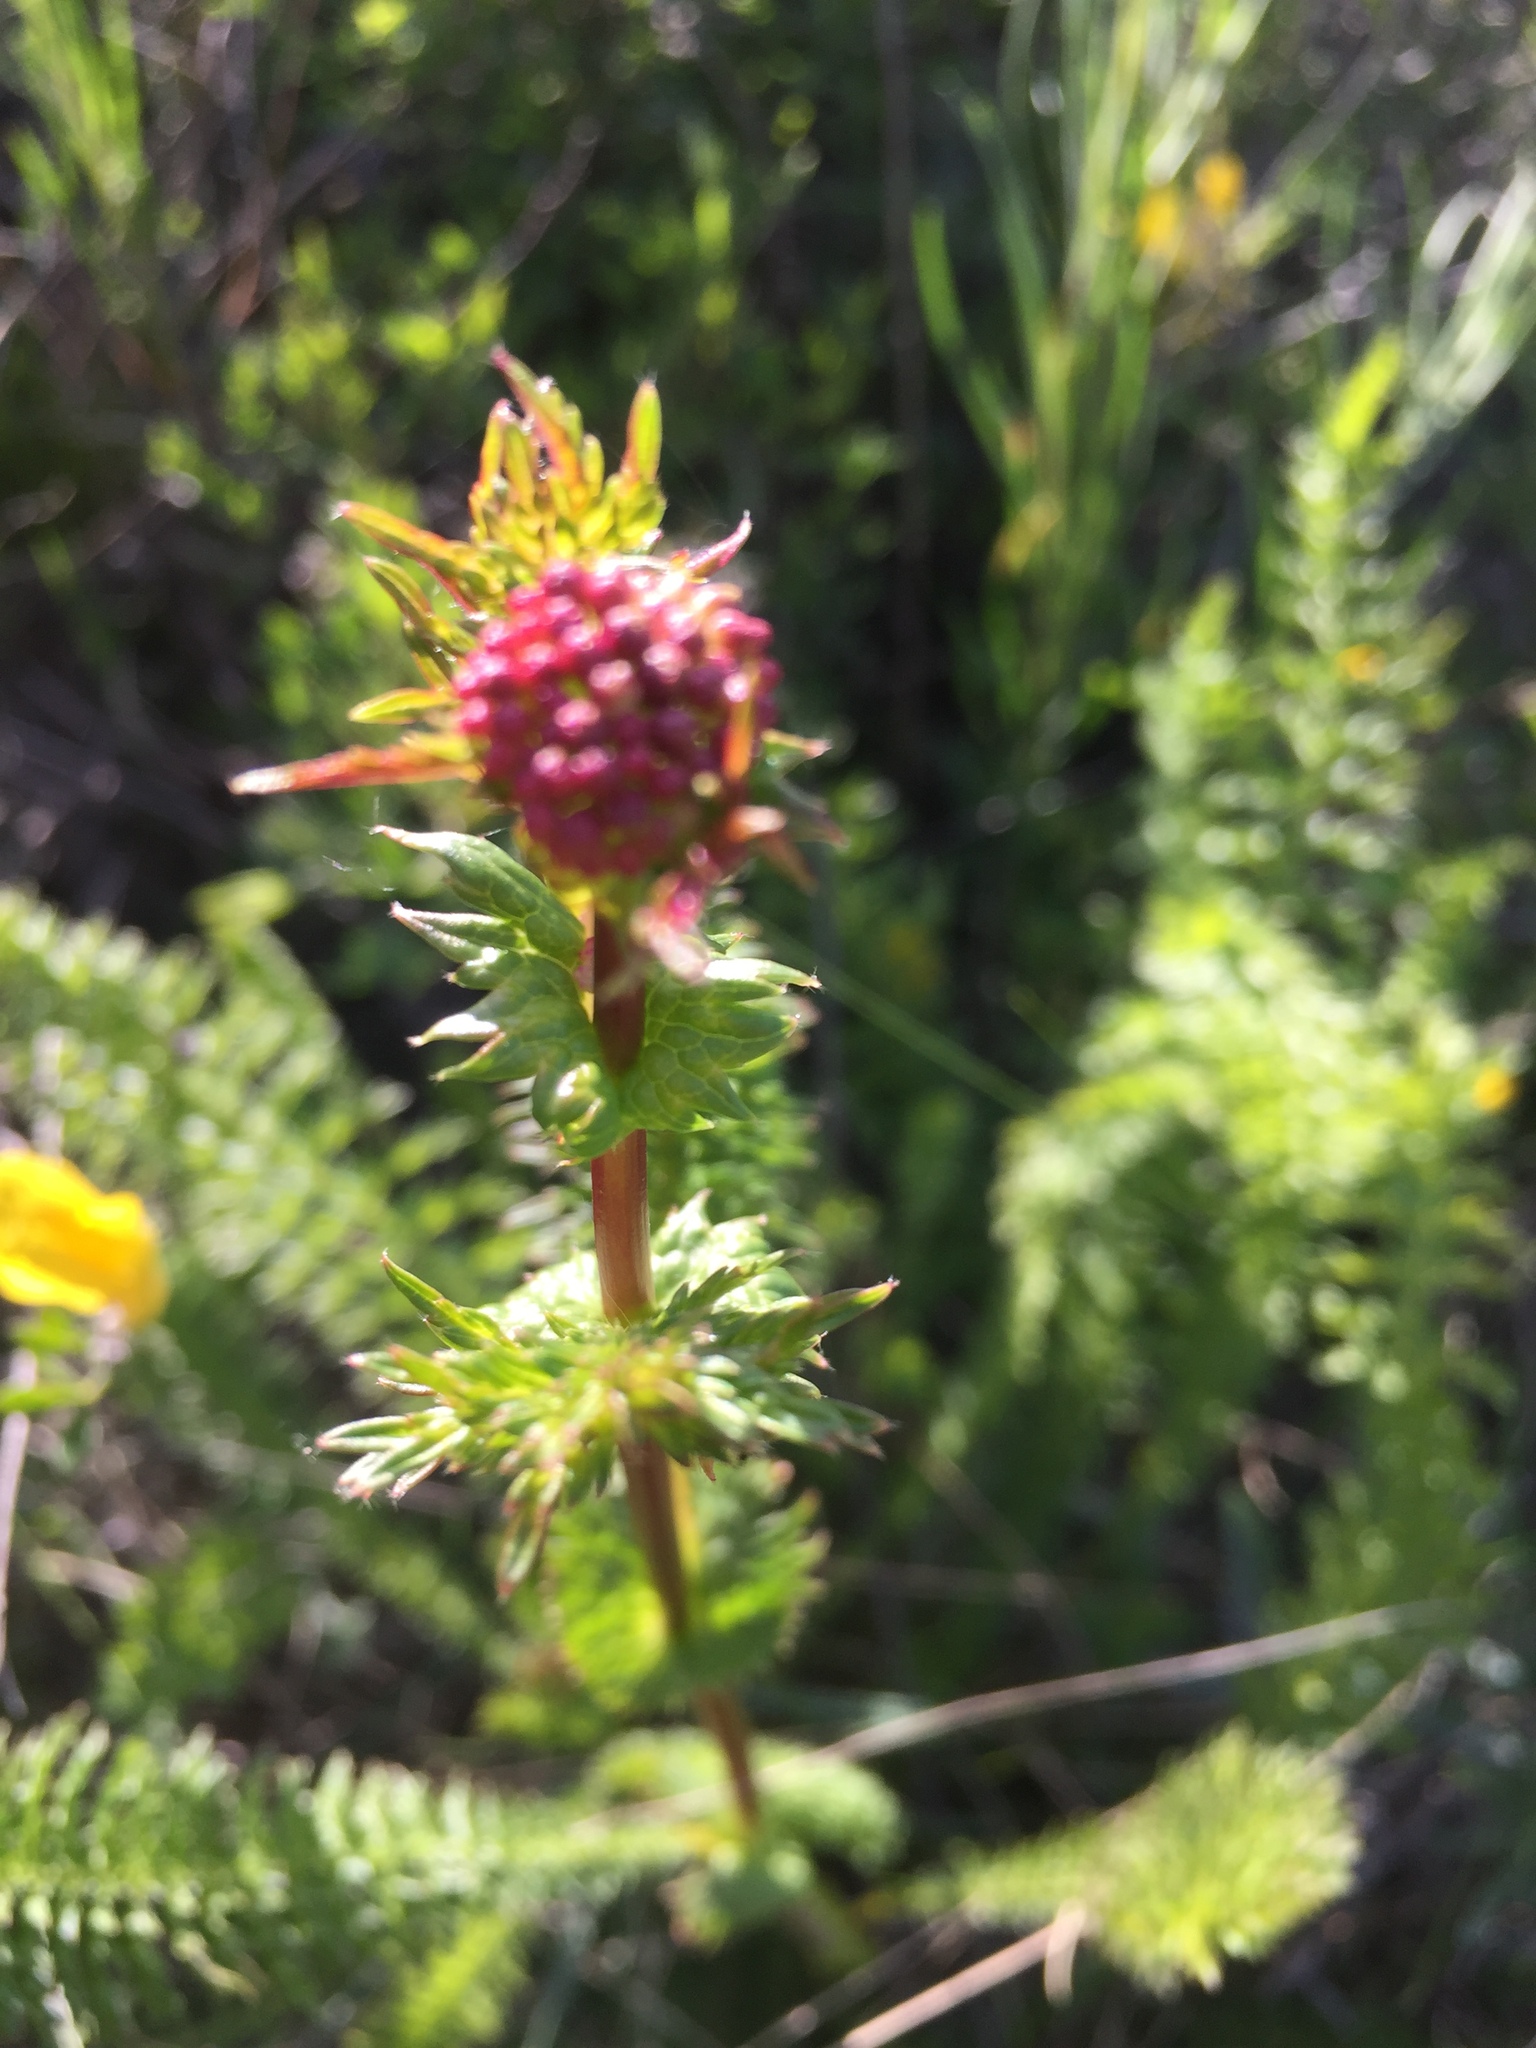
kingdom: Plantae
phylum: Tracheophyta
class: Magnoliopsida
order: Rosales
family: Rosaceae
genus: Filipendula
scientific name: Filipendula vulgaris
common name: Dropwort
